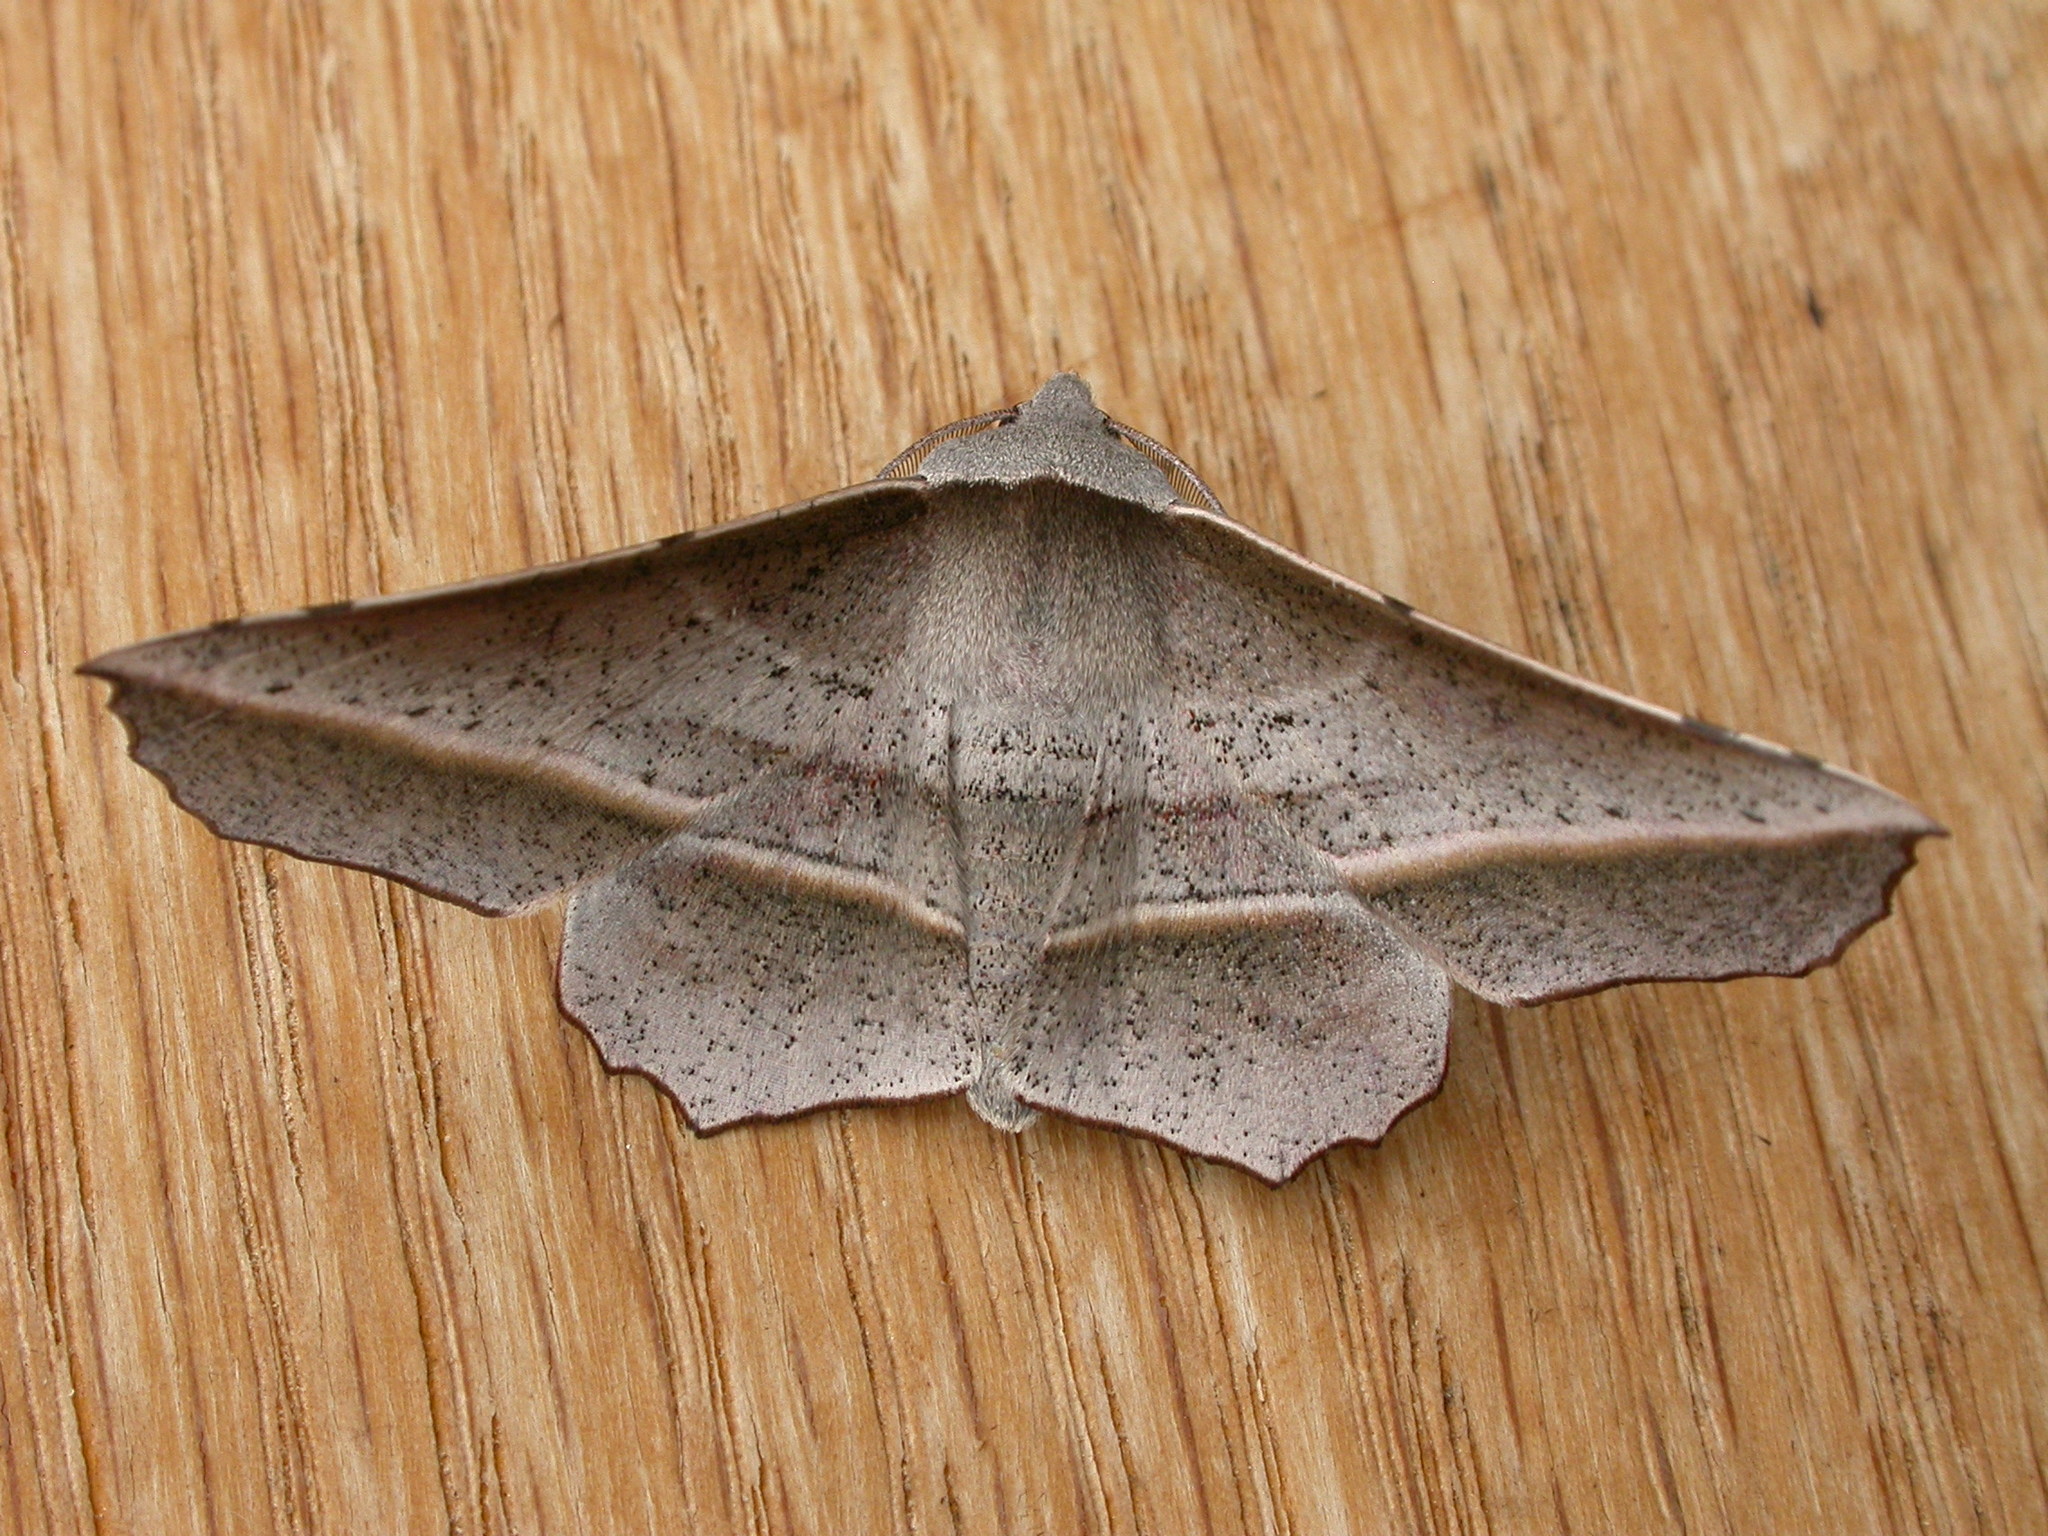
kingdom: Animalia
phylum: Arthropoda
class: Insecta
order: Lepidoptera
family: Geometridae
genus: Oenochroma
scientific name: Oenochroma vetustaria
